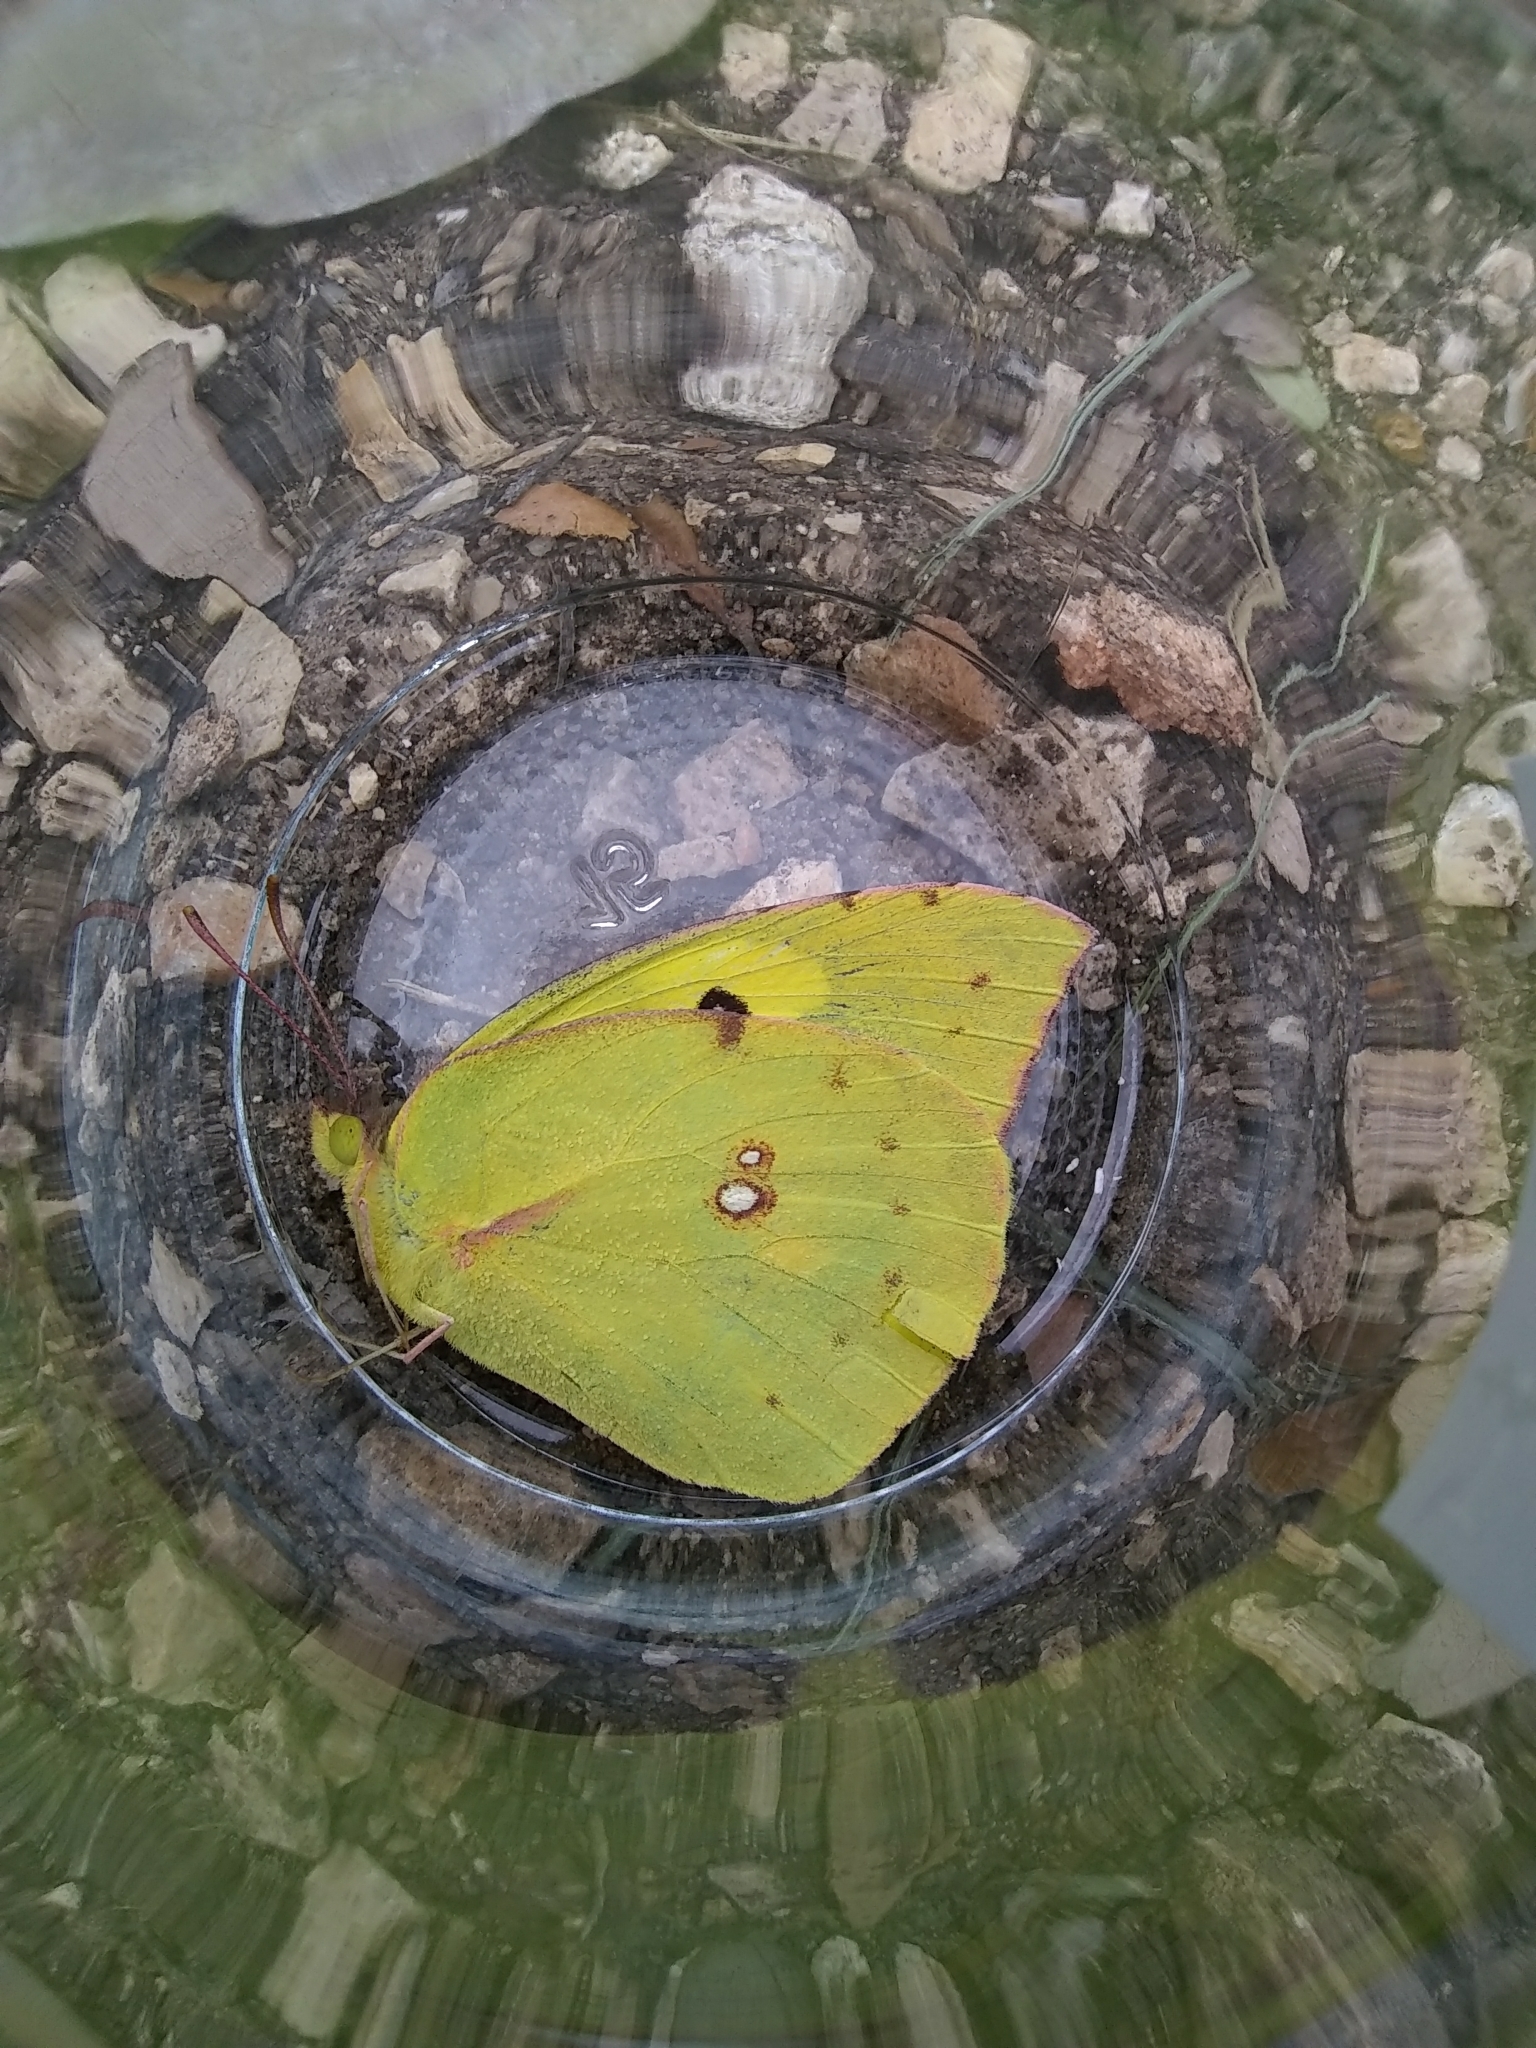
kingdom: Animalia
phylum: Arthropoda
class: Insecta
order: Lepidoptera
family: Pieridae
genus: Zerene
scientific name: Zerene cesonia
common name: Southern dogface
